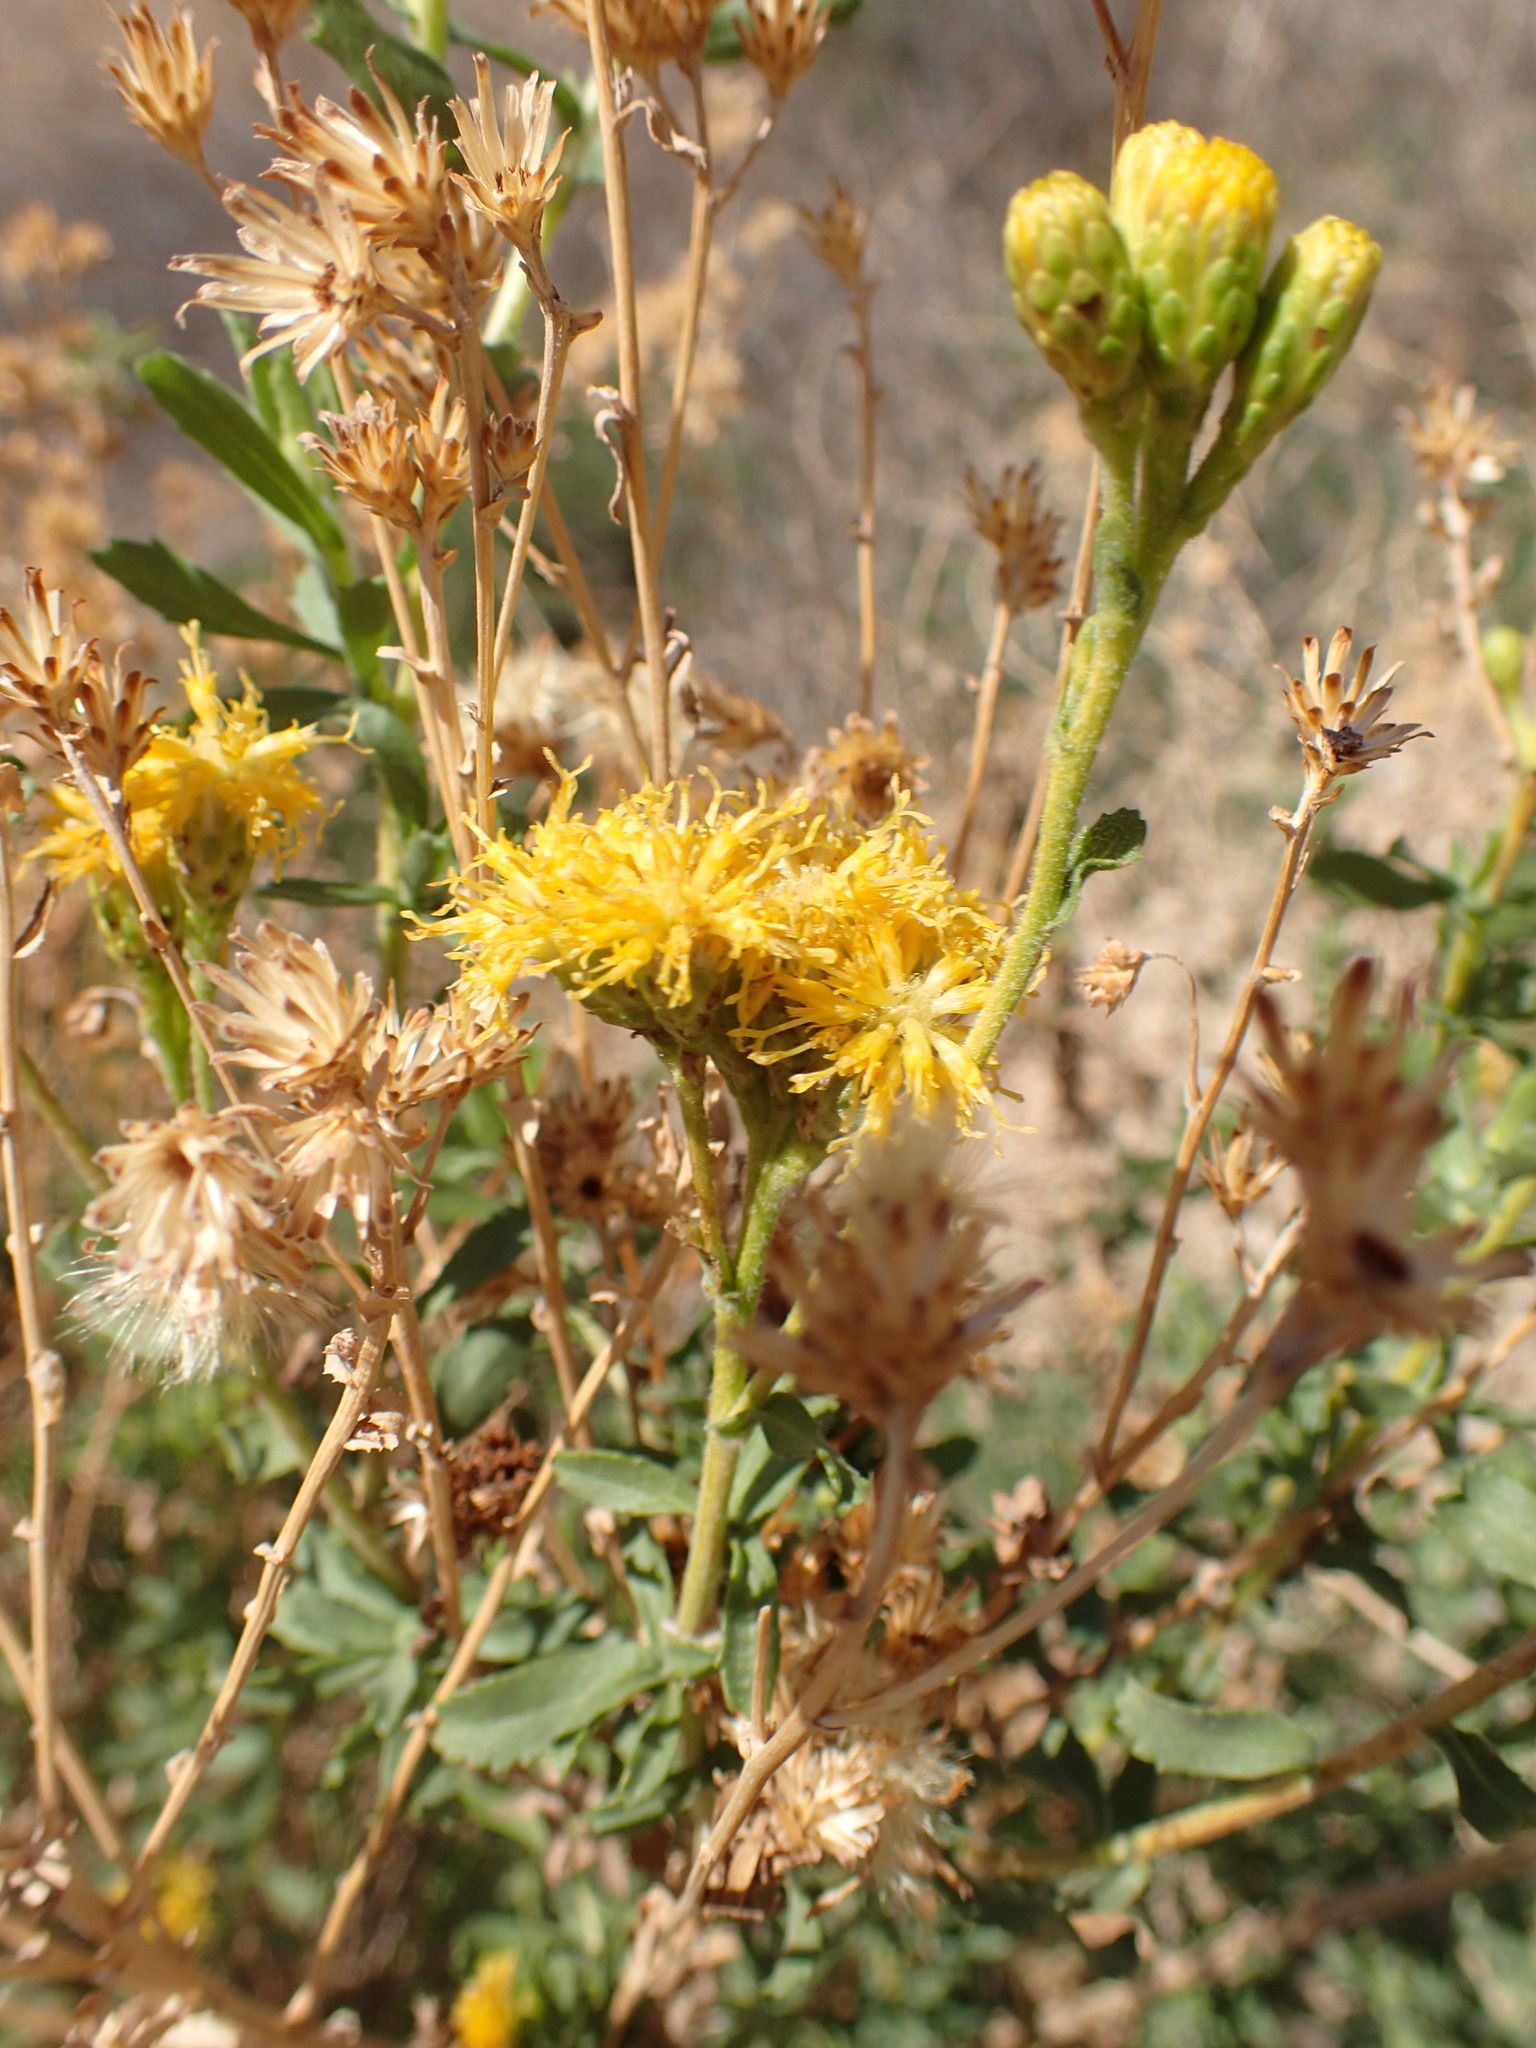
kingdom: Plantae
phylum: Tracheophyta
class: Magnoliopsida
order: Asterales
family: Asteraceae
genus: Isocoma
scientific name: Isocoma menziesii
